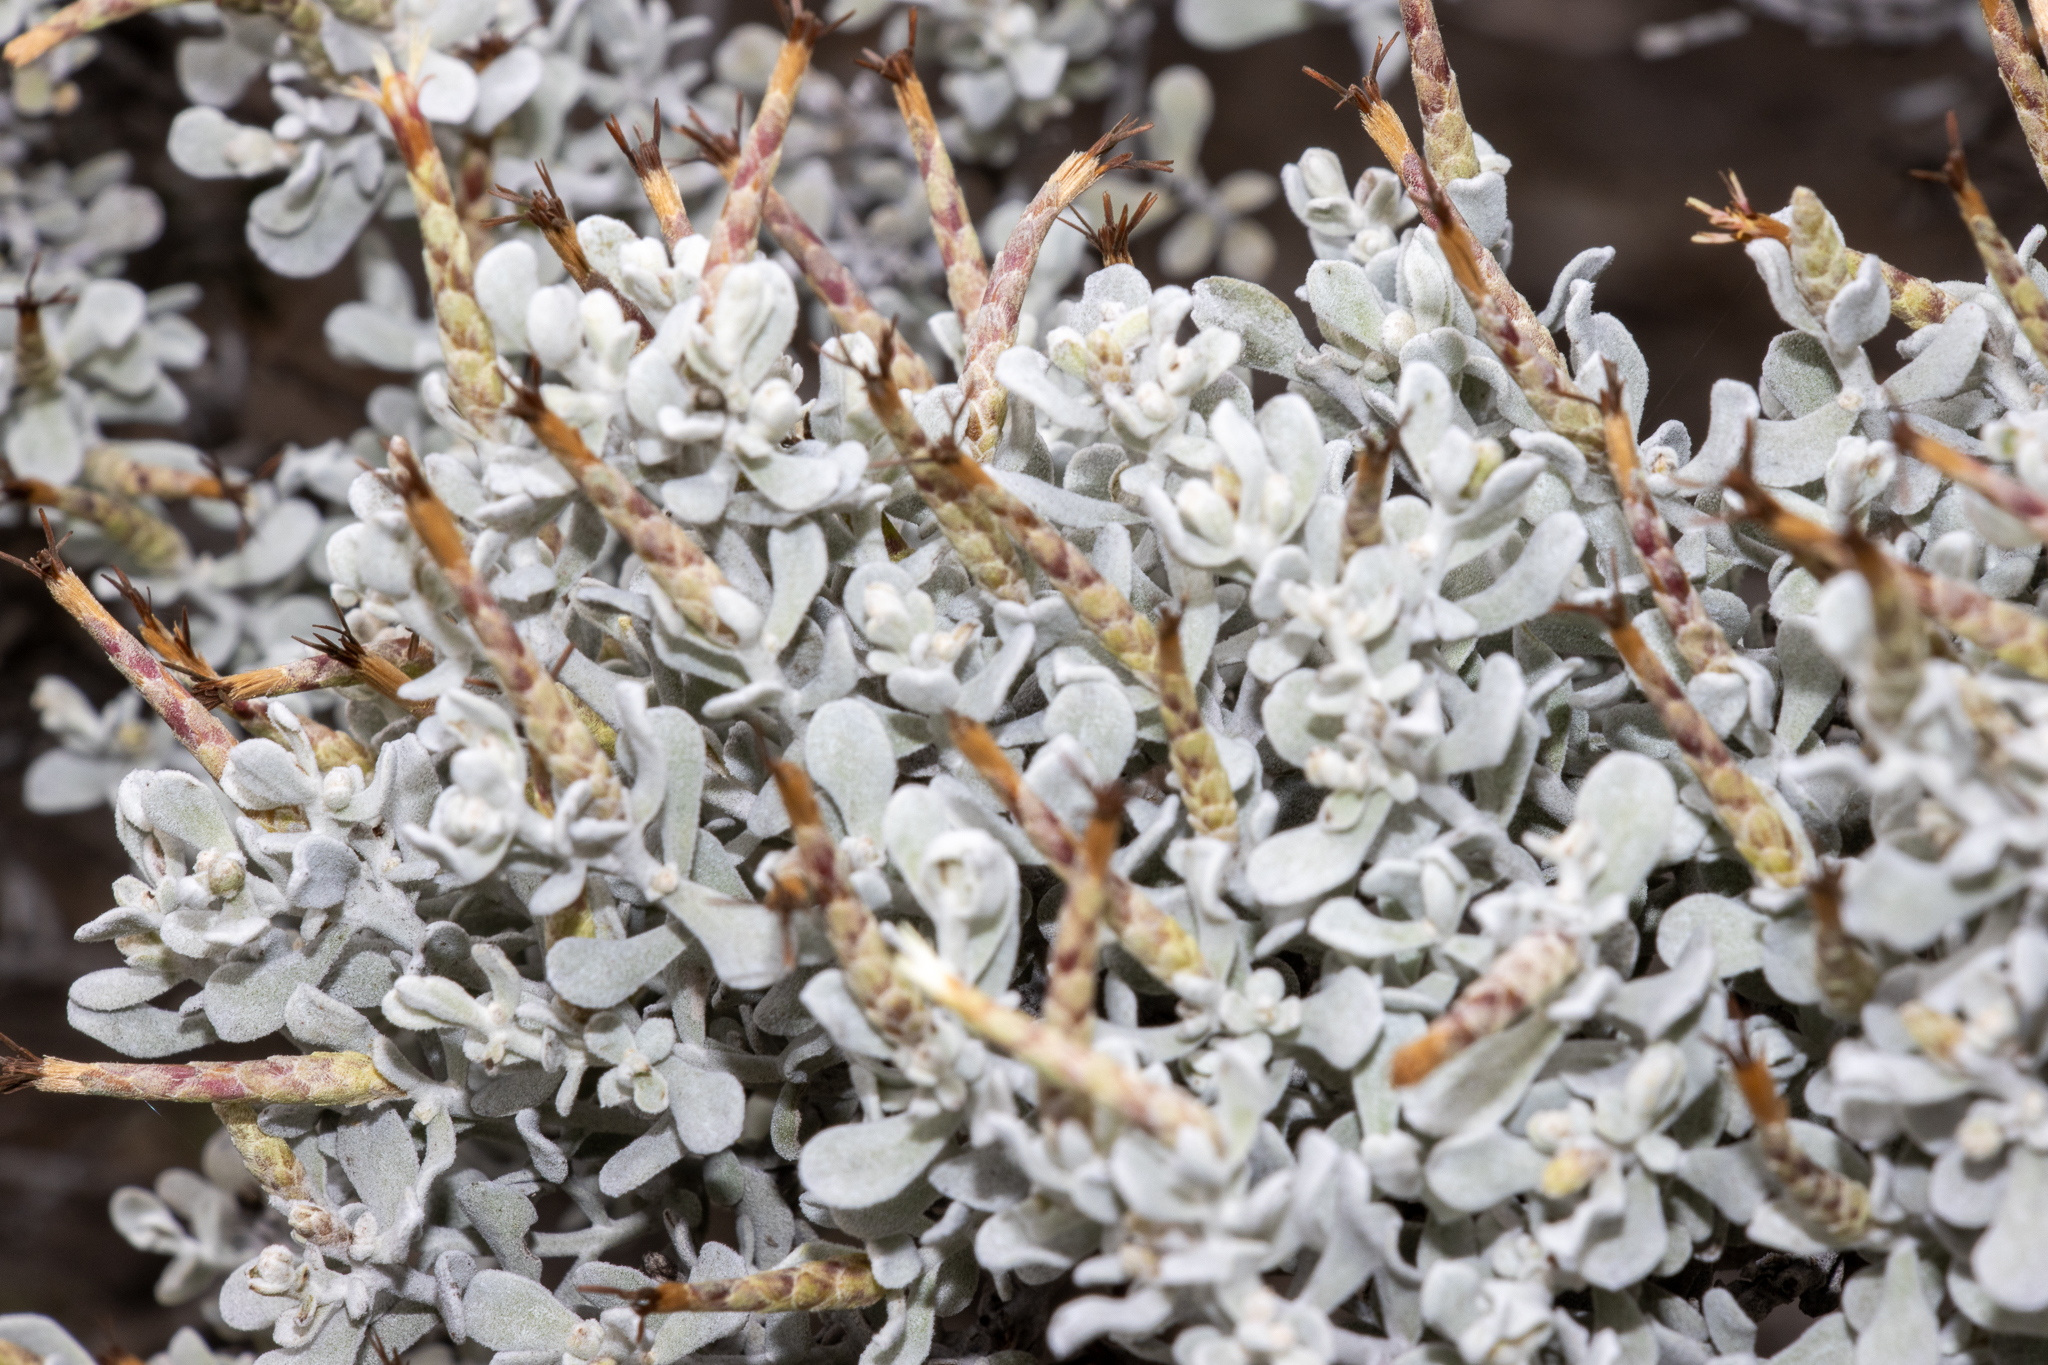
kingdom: Plantae
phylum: Tracheophyta
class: Magnoliopsida
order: Asterales
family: Asteraceae
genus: Cratystylis
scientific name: Cratystylis conocephala
